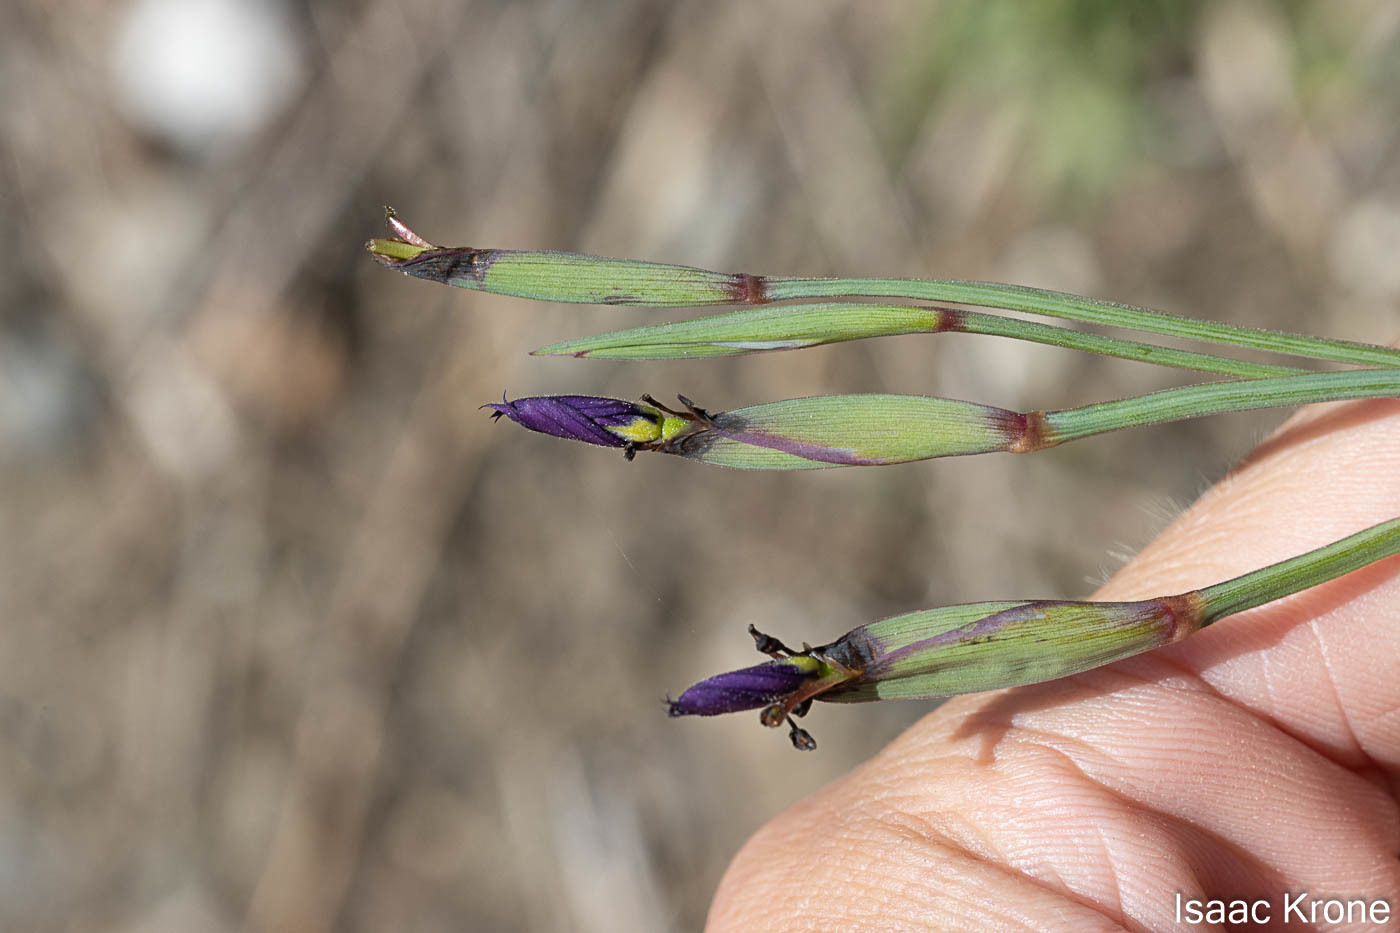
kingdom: Plantae
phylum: Tracheophyta
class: Liliopsida
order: Asparagales
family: Iridaceae
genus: Sisyrinchium
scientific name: Sisyrinchium bellum
